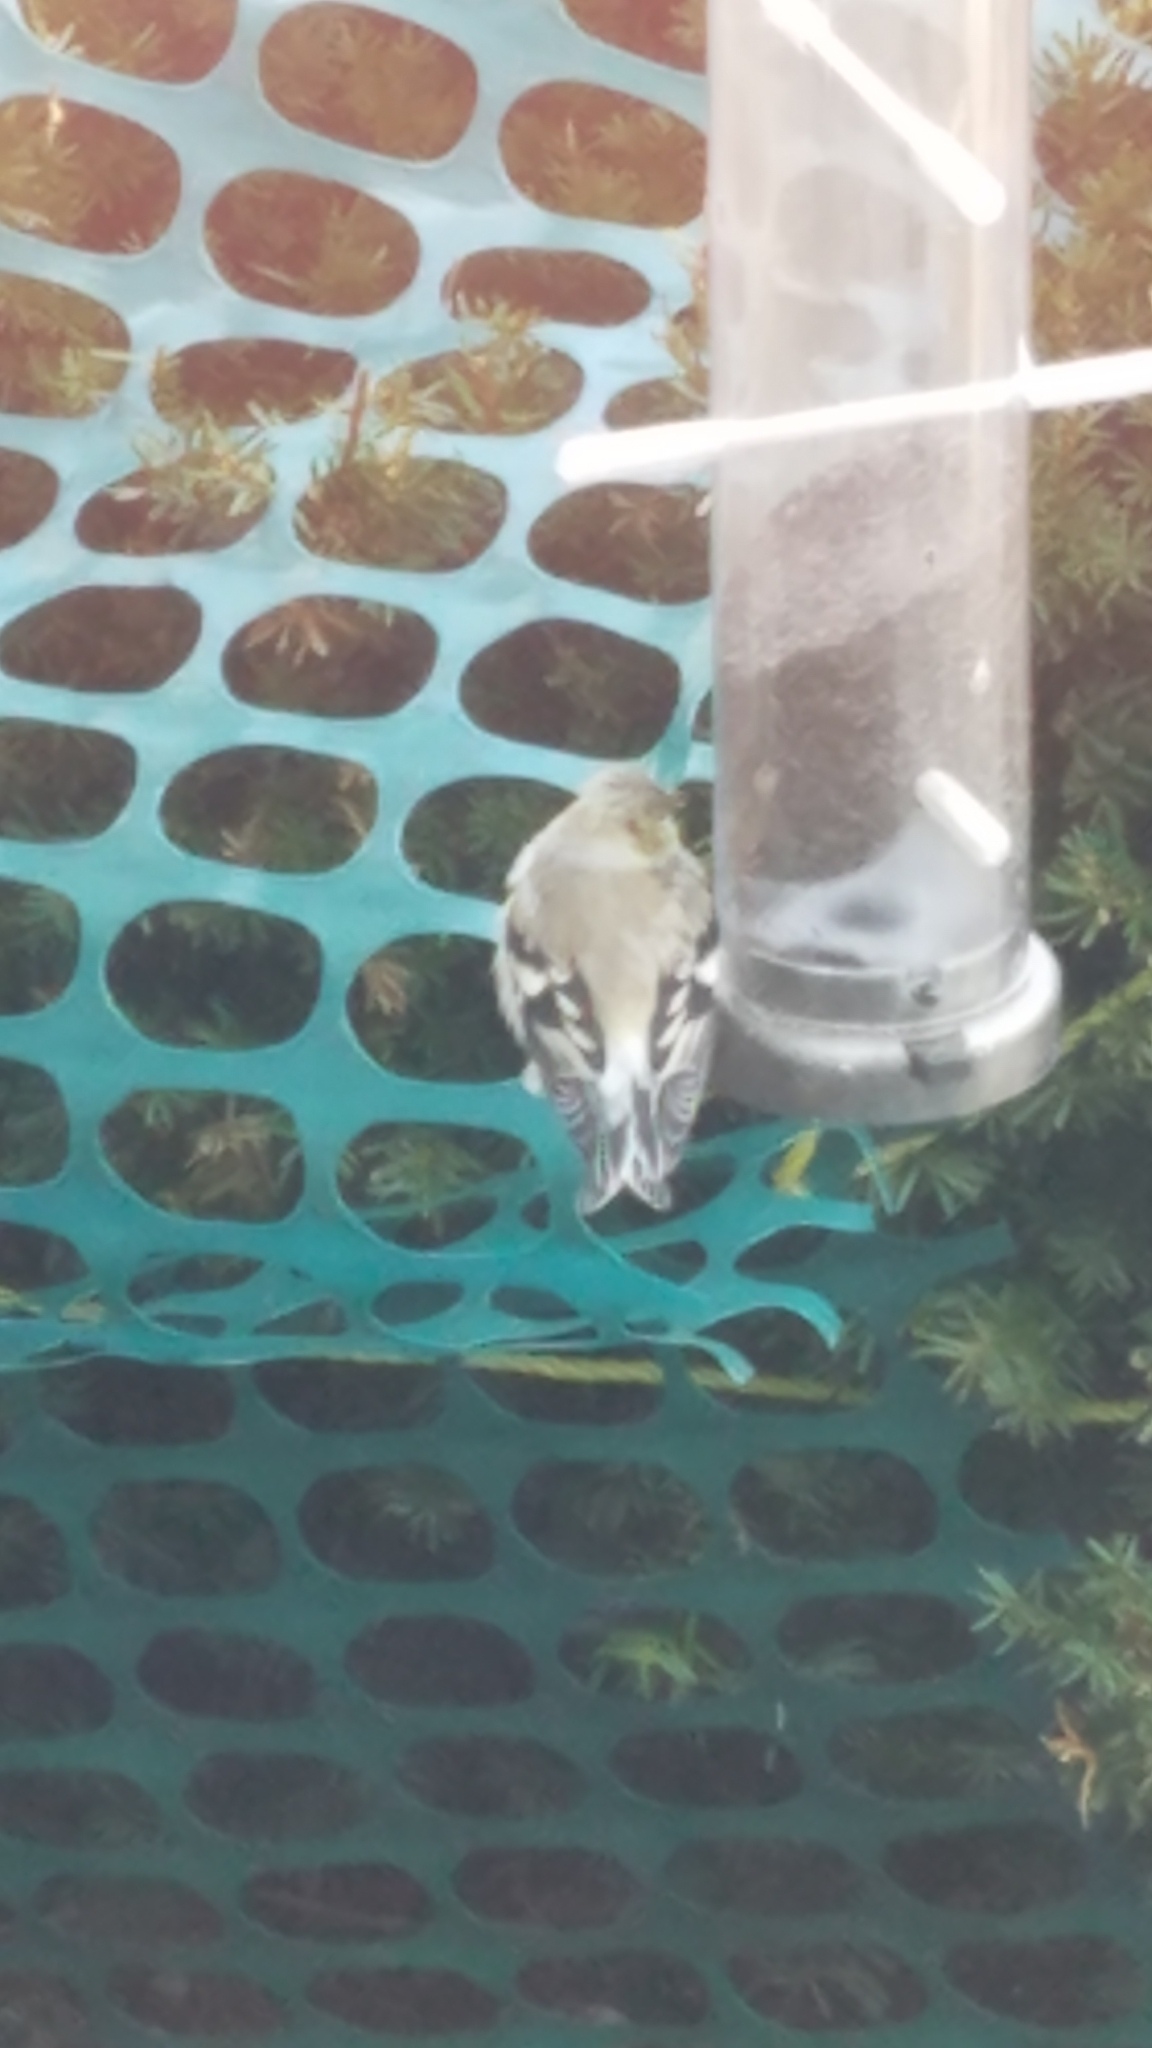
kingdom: Animalia
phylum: Chordata
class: Aves
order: Passeriformes
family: Fringillidae
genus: Spinus
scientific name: Spinus tristis
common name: American goldfinch
